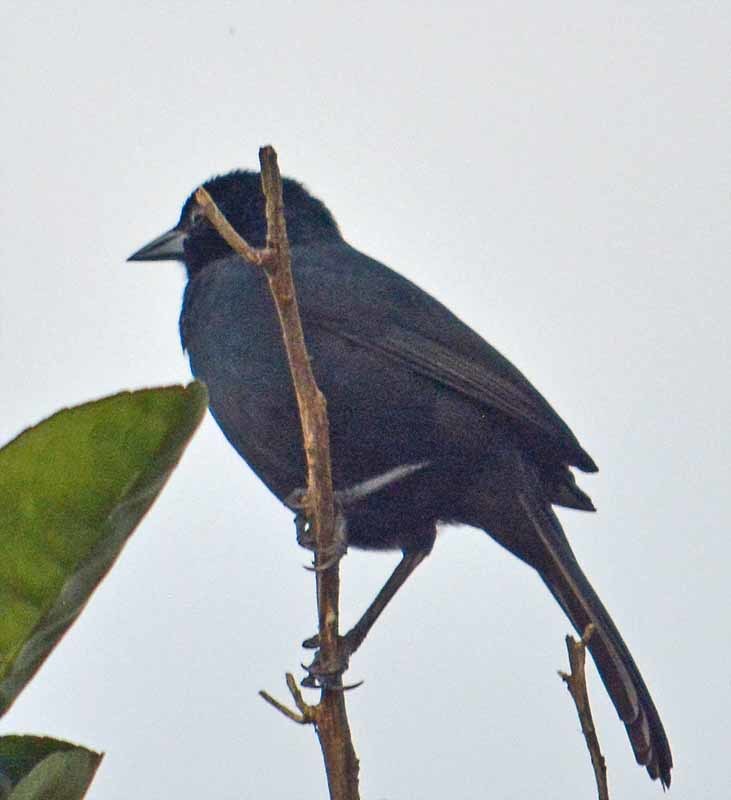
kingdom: Animalia
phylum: Chordata
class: Aves
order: Passeriformes
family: Icteridae
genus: Dives
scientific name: Dives dives
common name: Melodious blackbird
